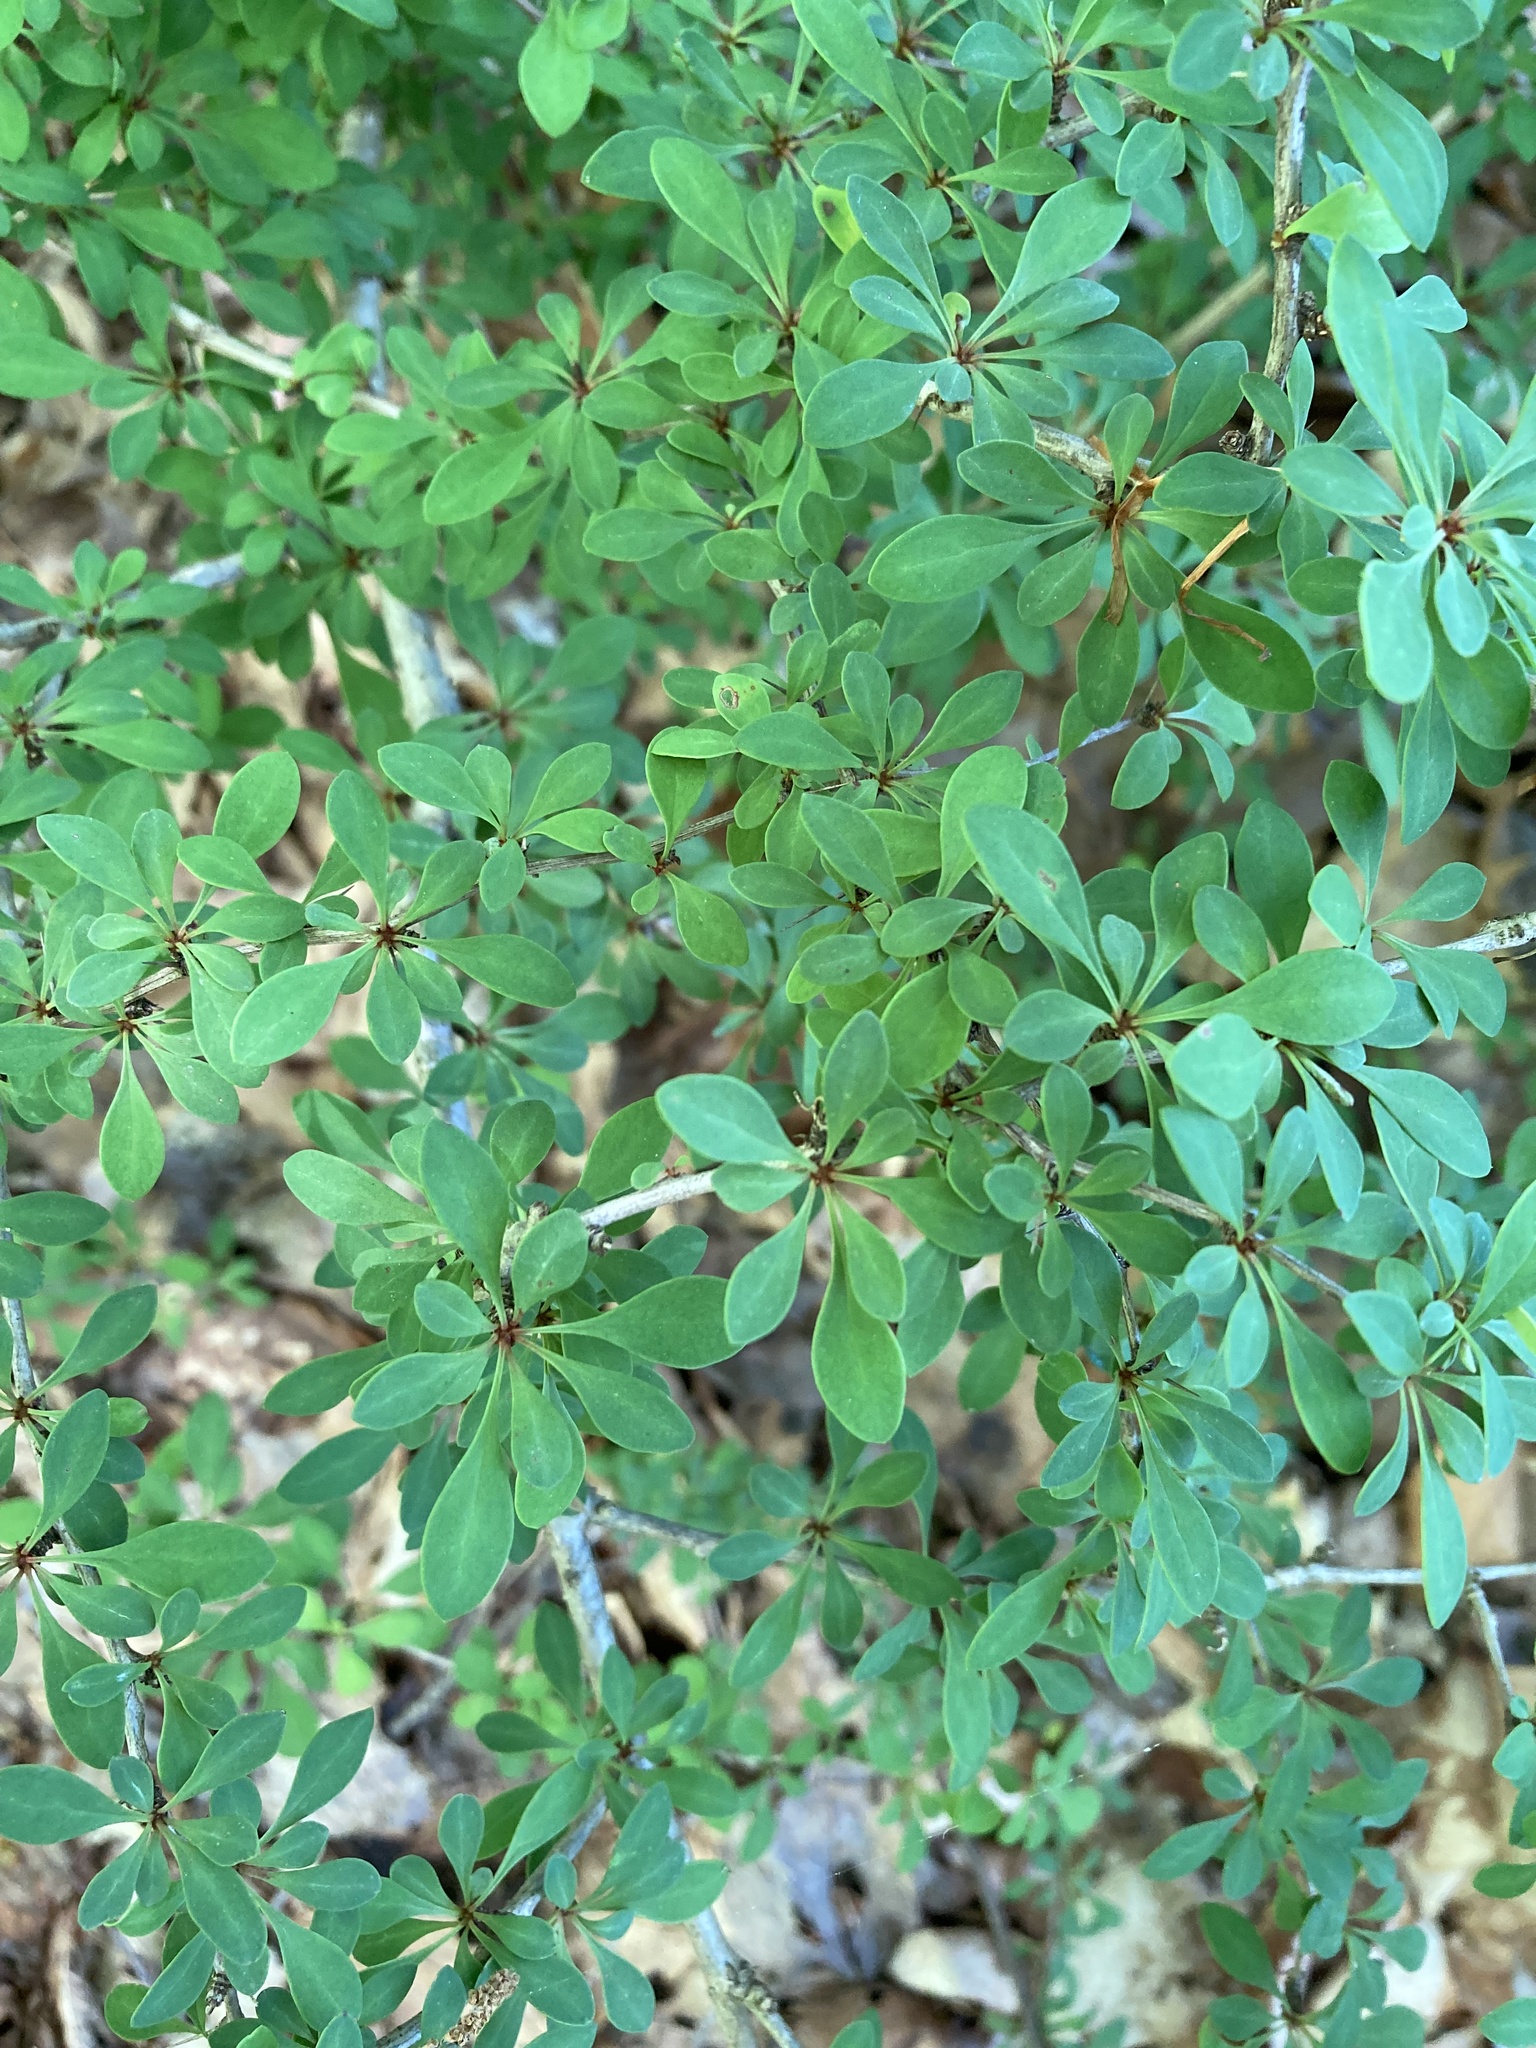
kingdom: Plantae
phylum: Tracheophyta
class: Magnoliopsida
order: Ranunculales
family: Berberidaceae
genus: Berberis
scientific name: Berberis thunbergii
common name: Japanese barberry
